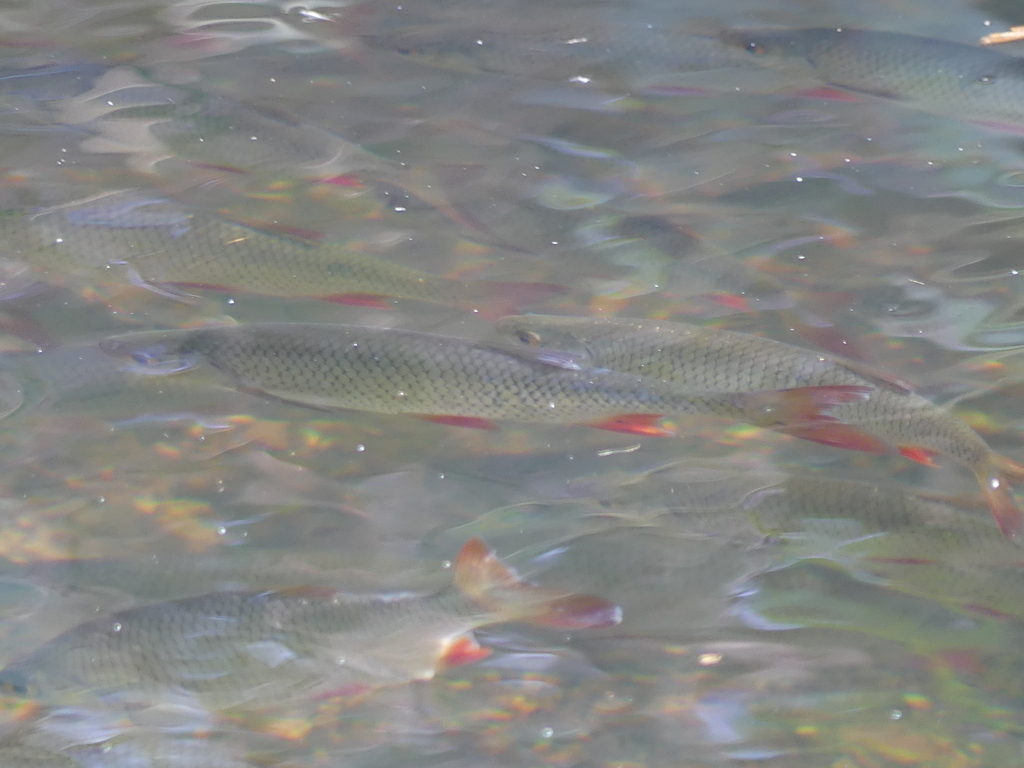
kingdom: Animalia
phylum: Chordata
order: Cypriniformes
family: Cyprinidae
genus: Scardinius
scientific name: Scardinius erythrophthalmus
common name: Rudd
